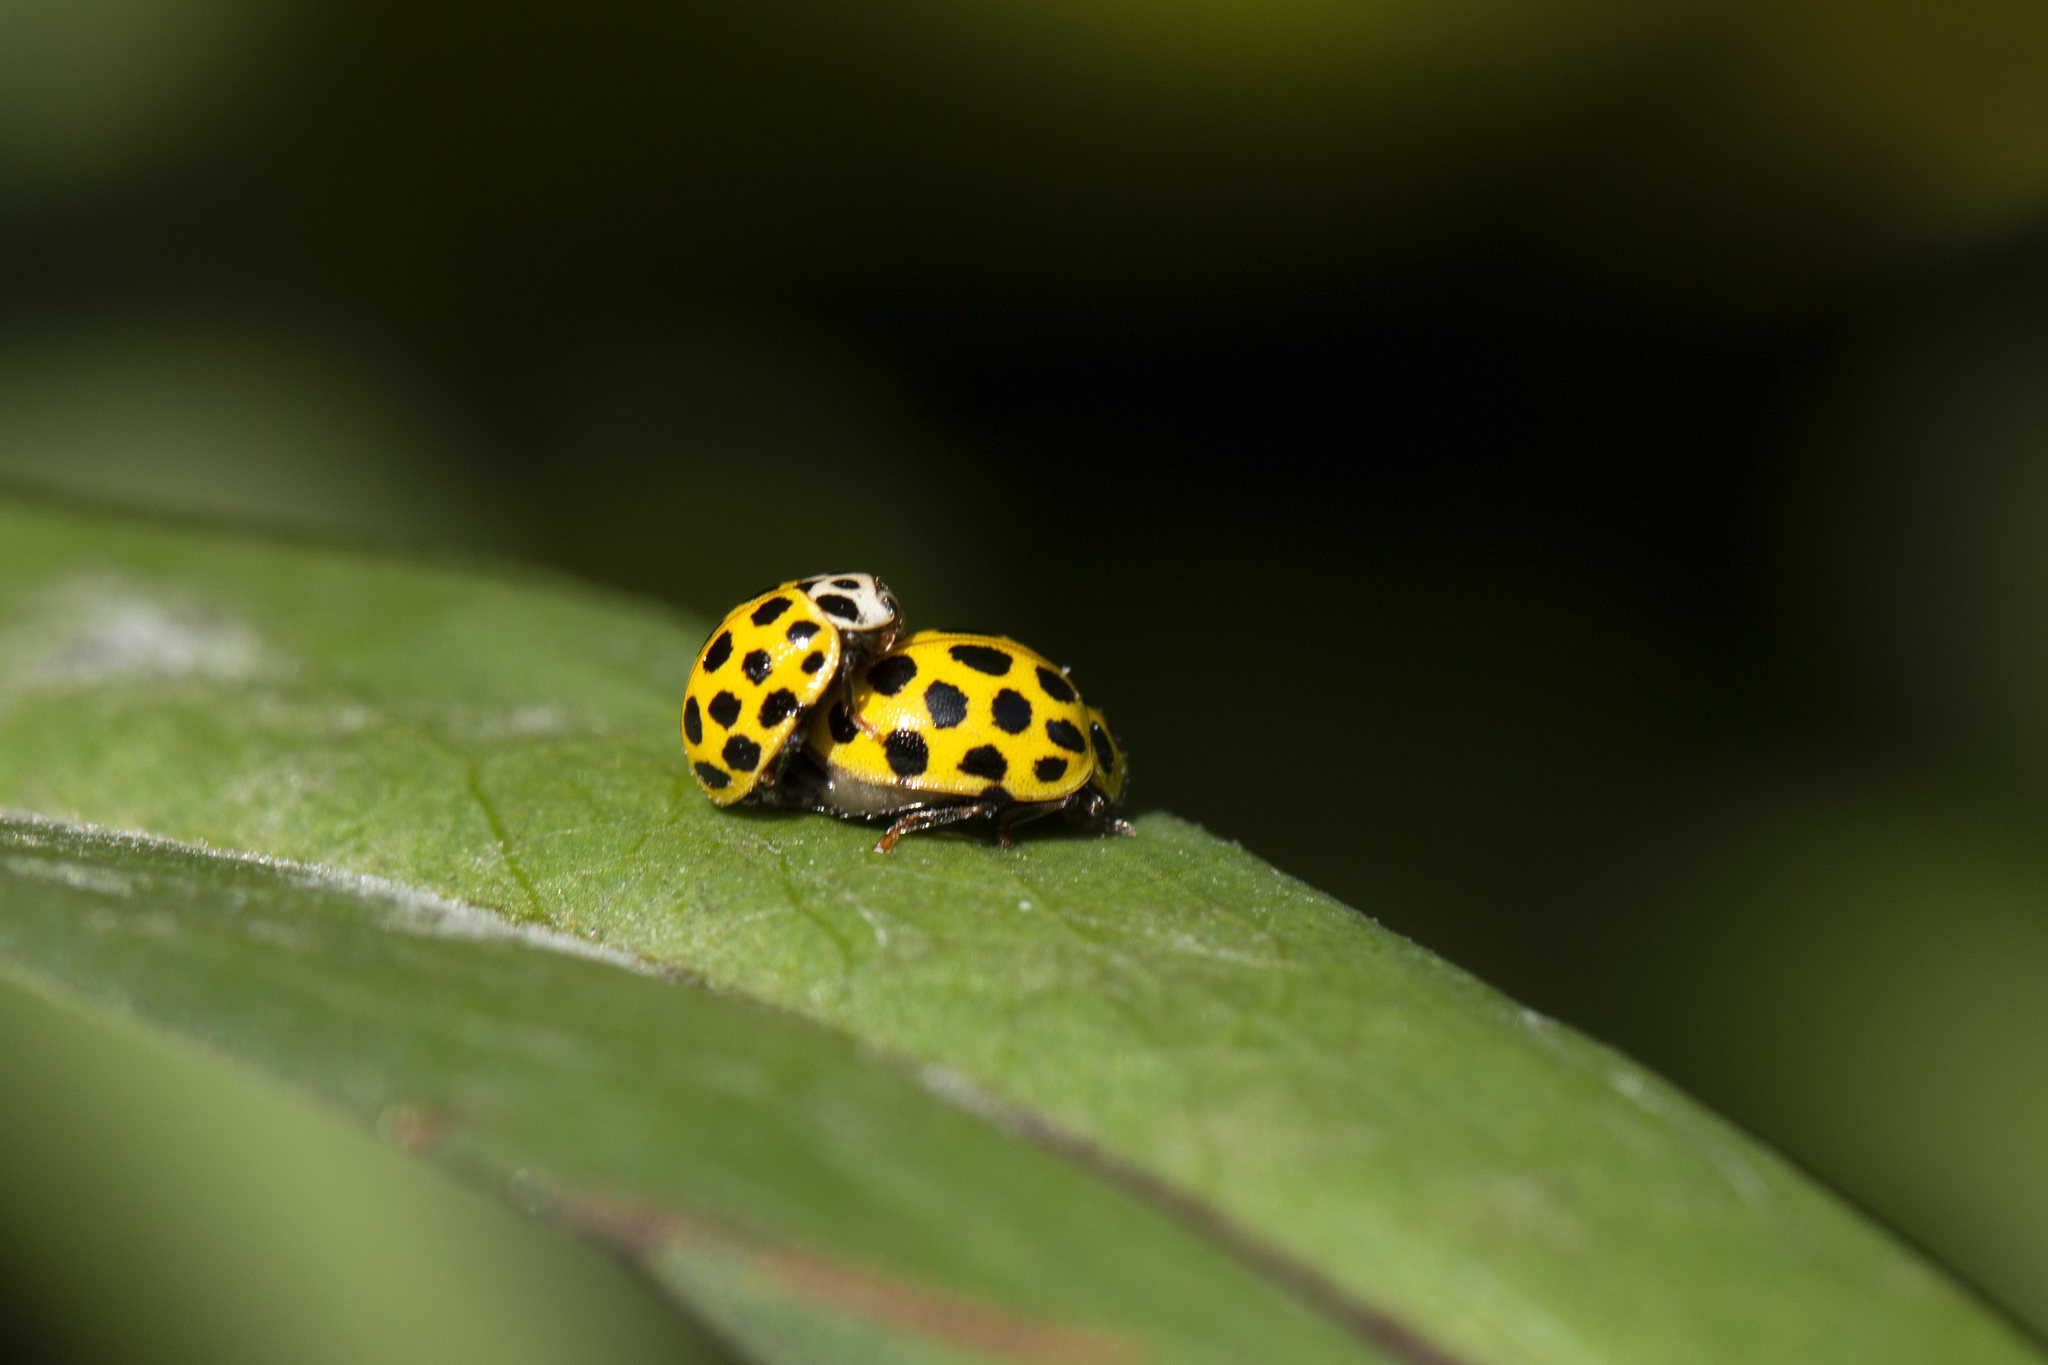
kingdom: Animalia
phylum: Arthropoda
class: Insecta
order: Coleoptera
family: Coccinellidae
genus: Psyllobora
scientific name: Psyllobora vigintiduopunctata
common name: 22-spot ladybird
